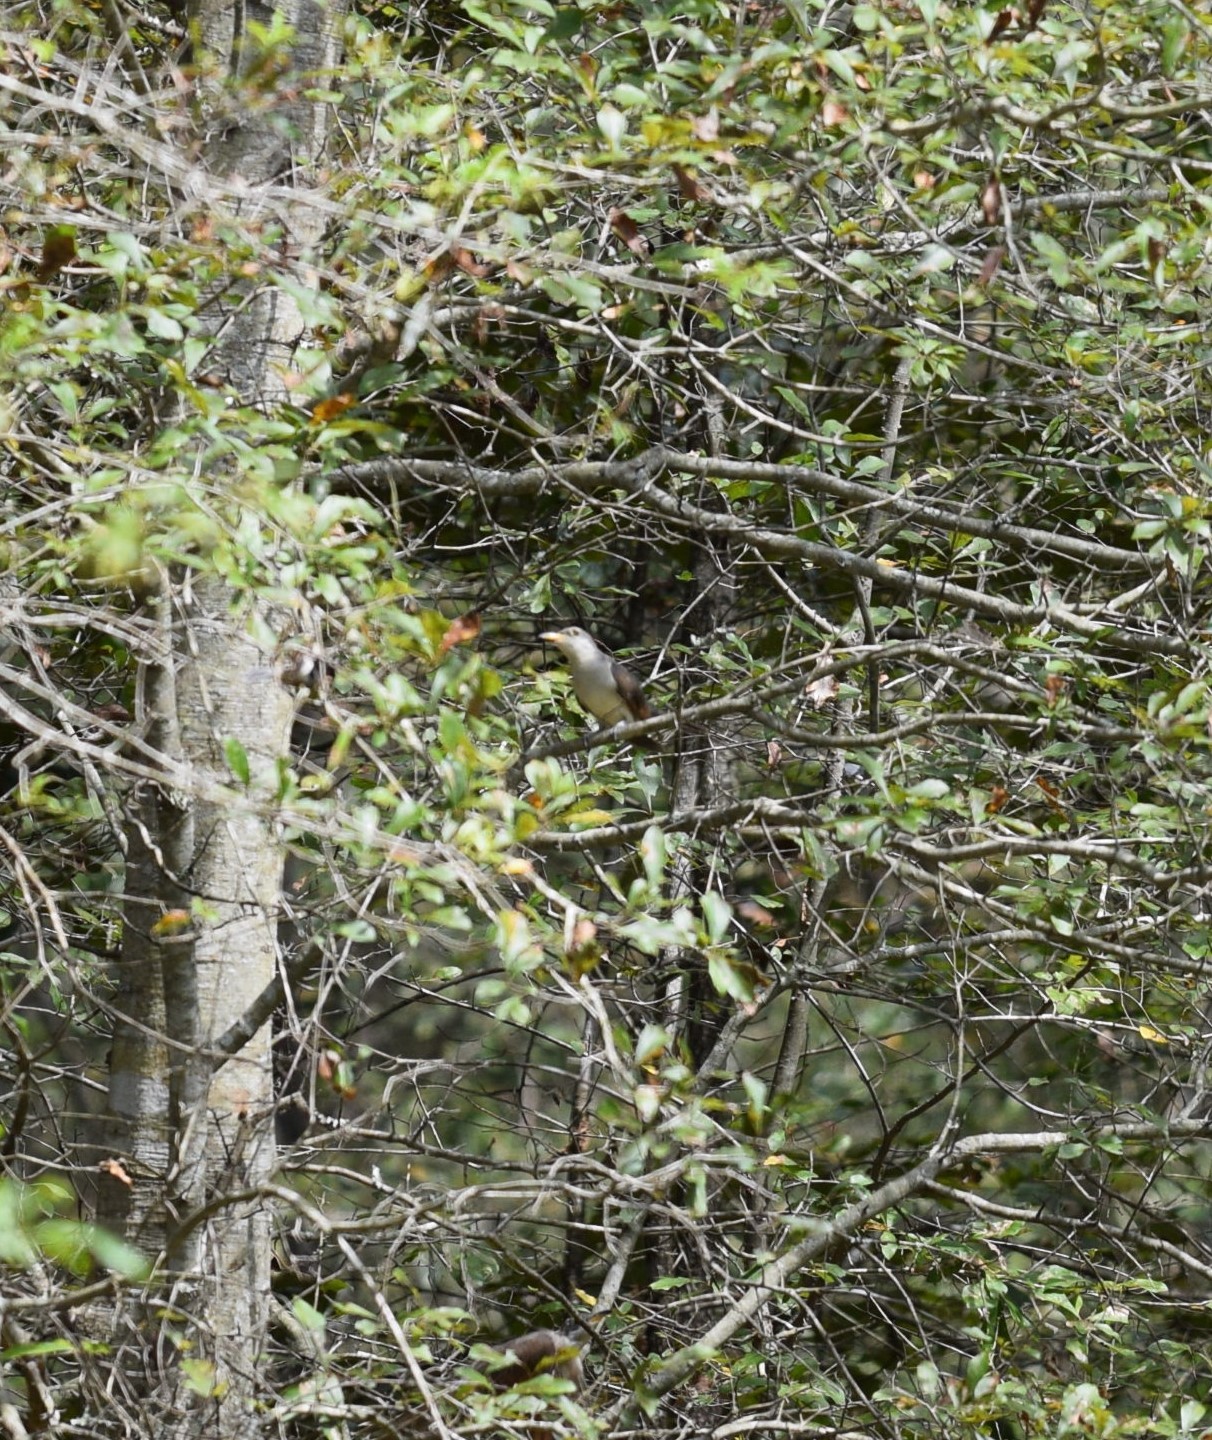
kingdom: Animalia
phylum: Chordata
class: Aves
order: Cuculiformes
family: Cuculidae
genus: Coccyzus
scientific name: Coccyzus americanus
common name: Yellow-billed cuckoo
